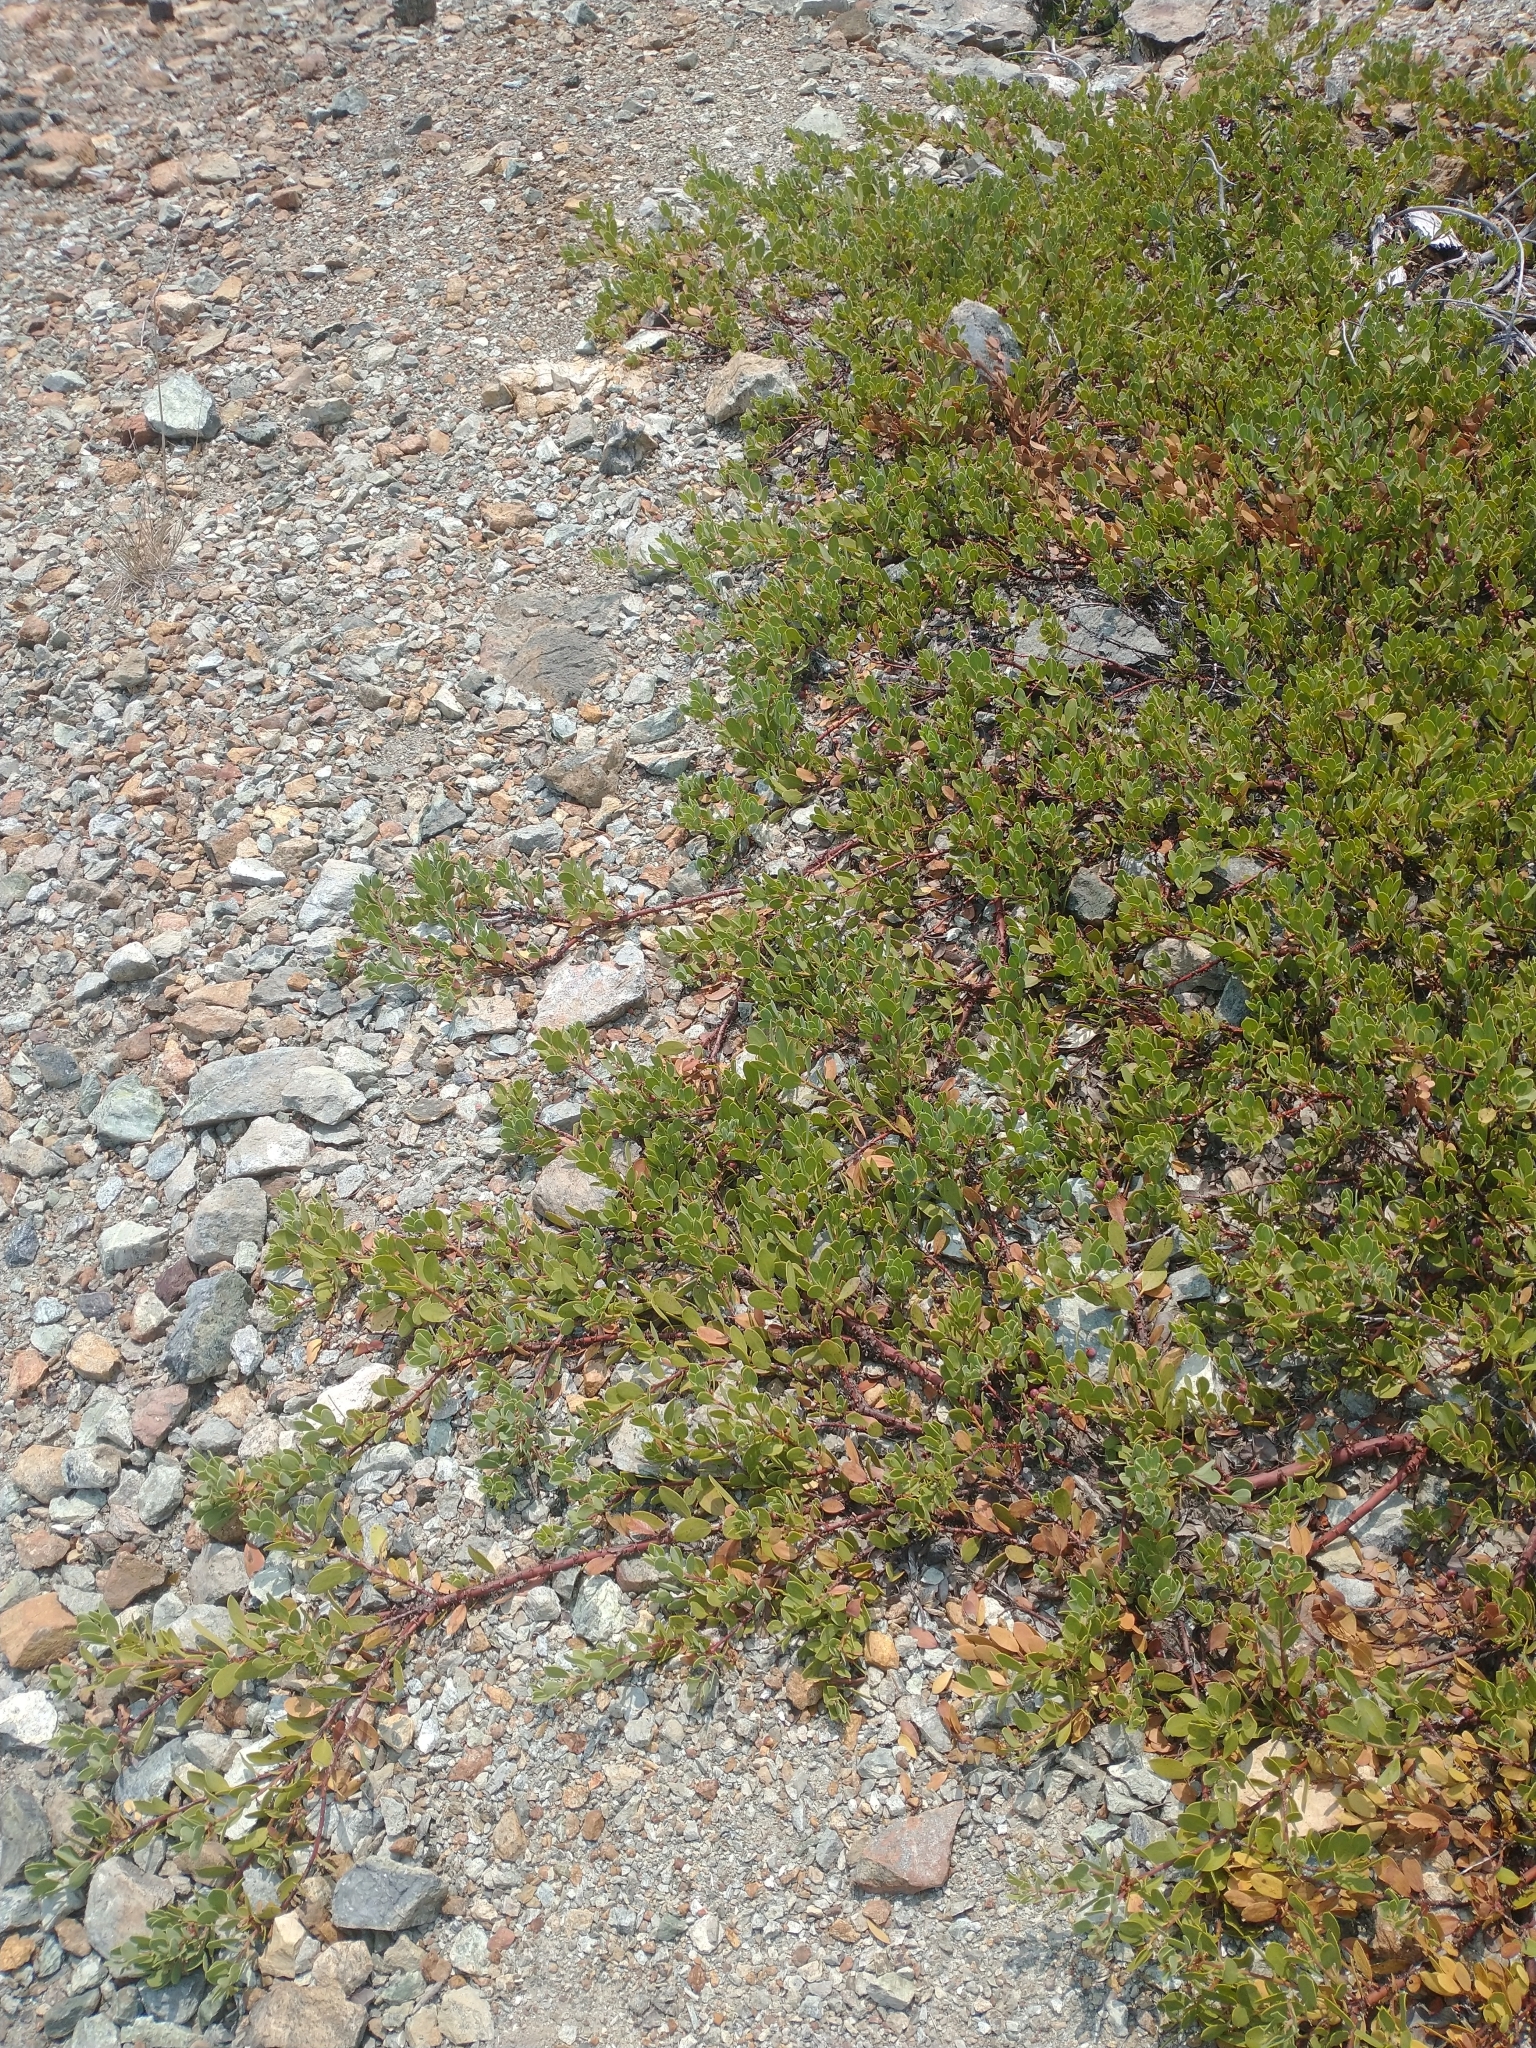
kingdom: Plantae
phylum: Tracheophyta
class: Magnoliopsida
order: Ericales
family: Ericaceae
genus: Arctostaphylos
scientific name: Arctostaphylos nevadensis
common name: Pinemat manzanita
